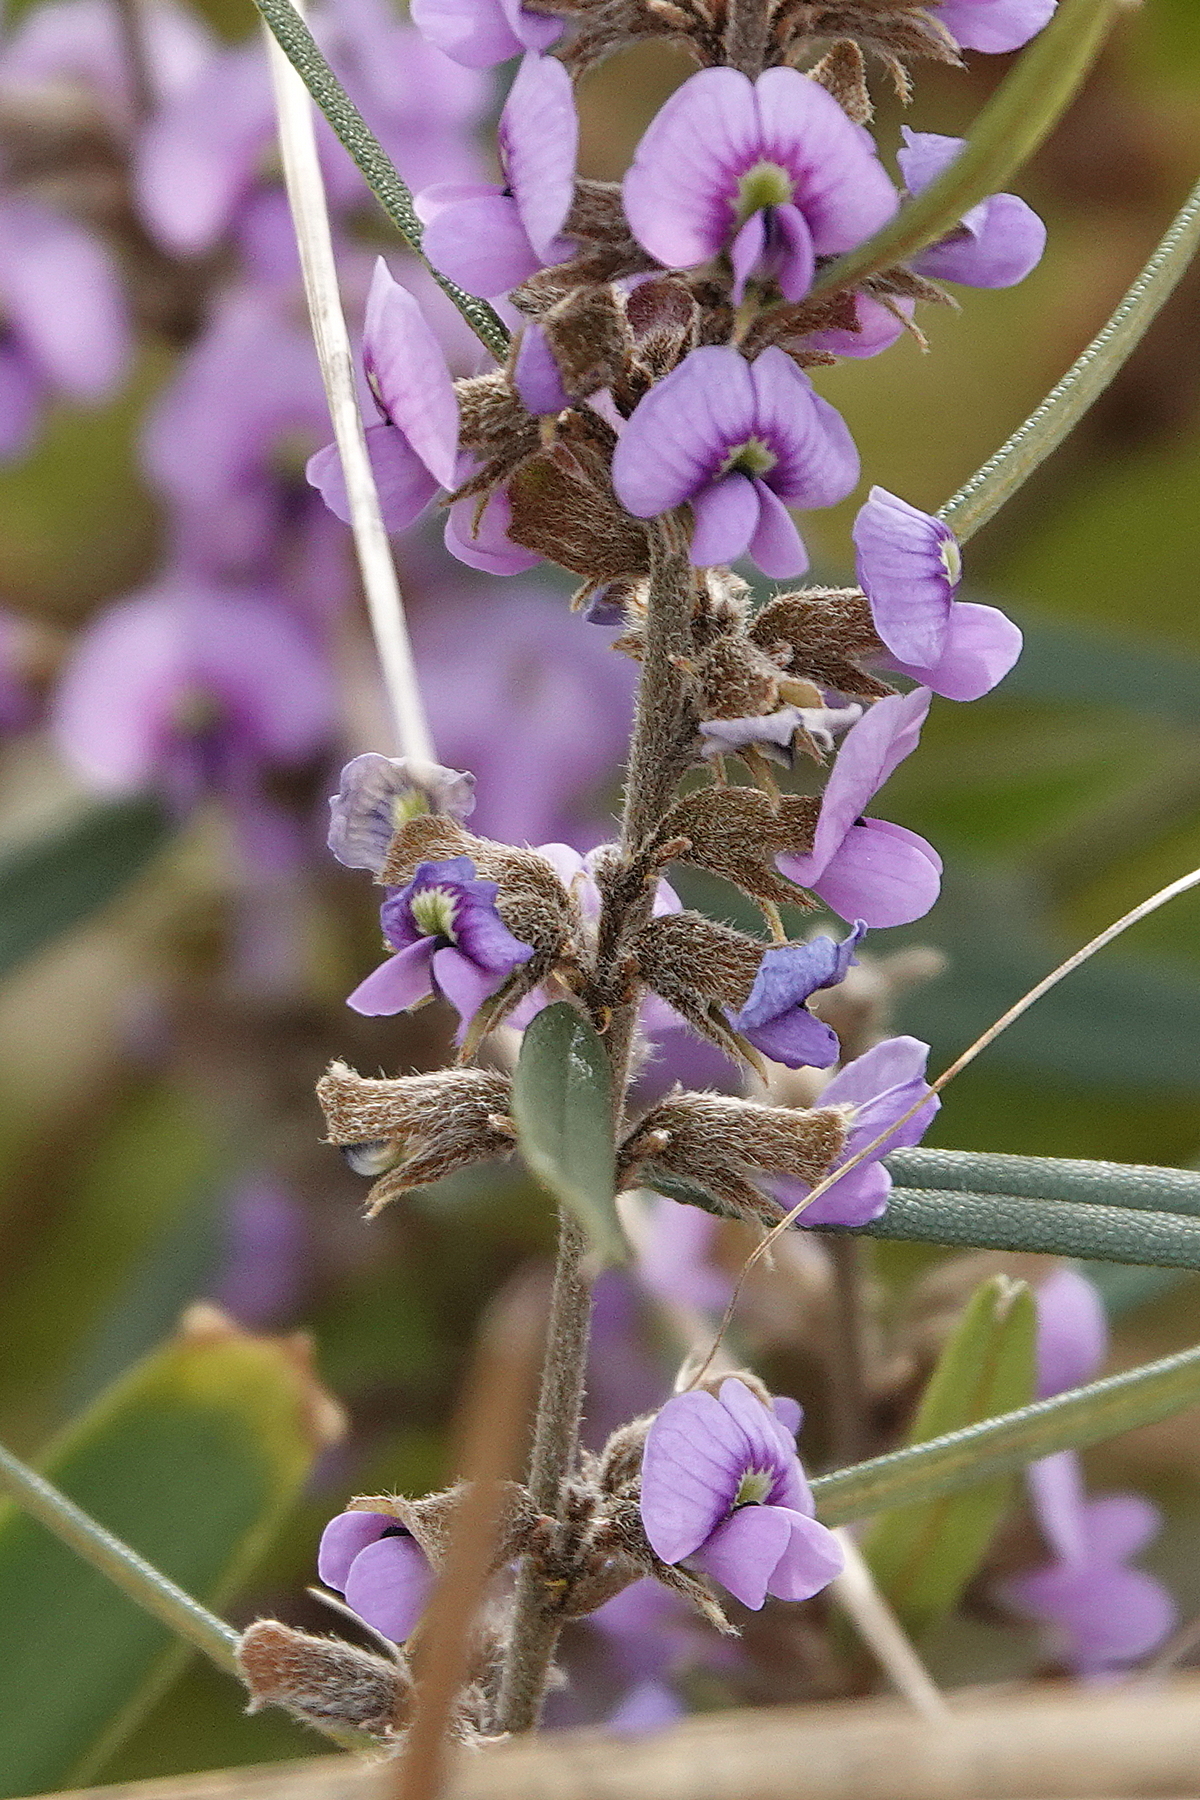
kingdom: Plantae
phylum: Tracheophyta
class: Magnoliopsida
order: Fabales
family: Fabaceae
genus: Hovea
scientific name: Hovea heterophylla
